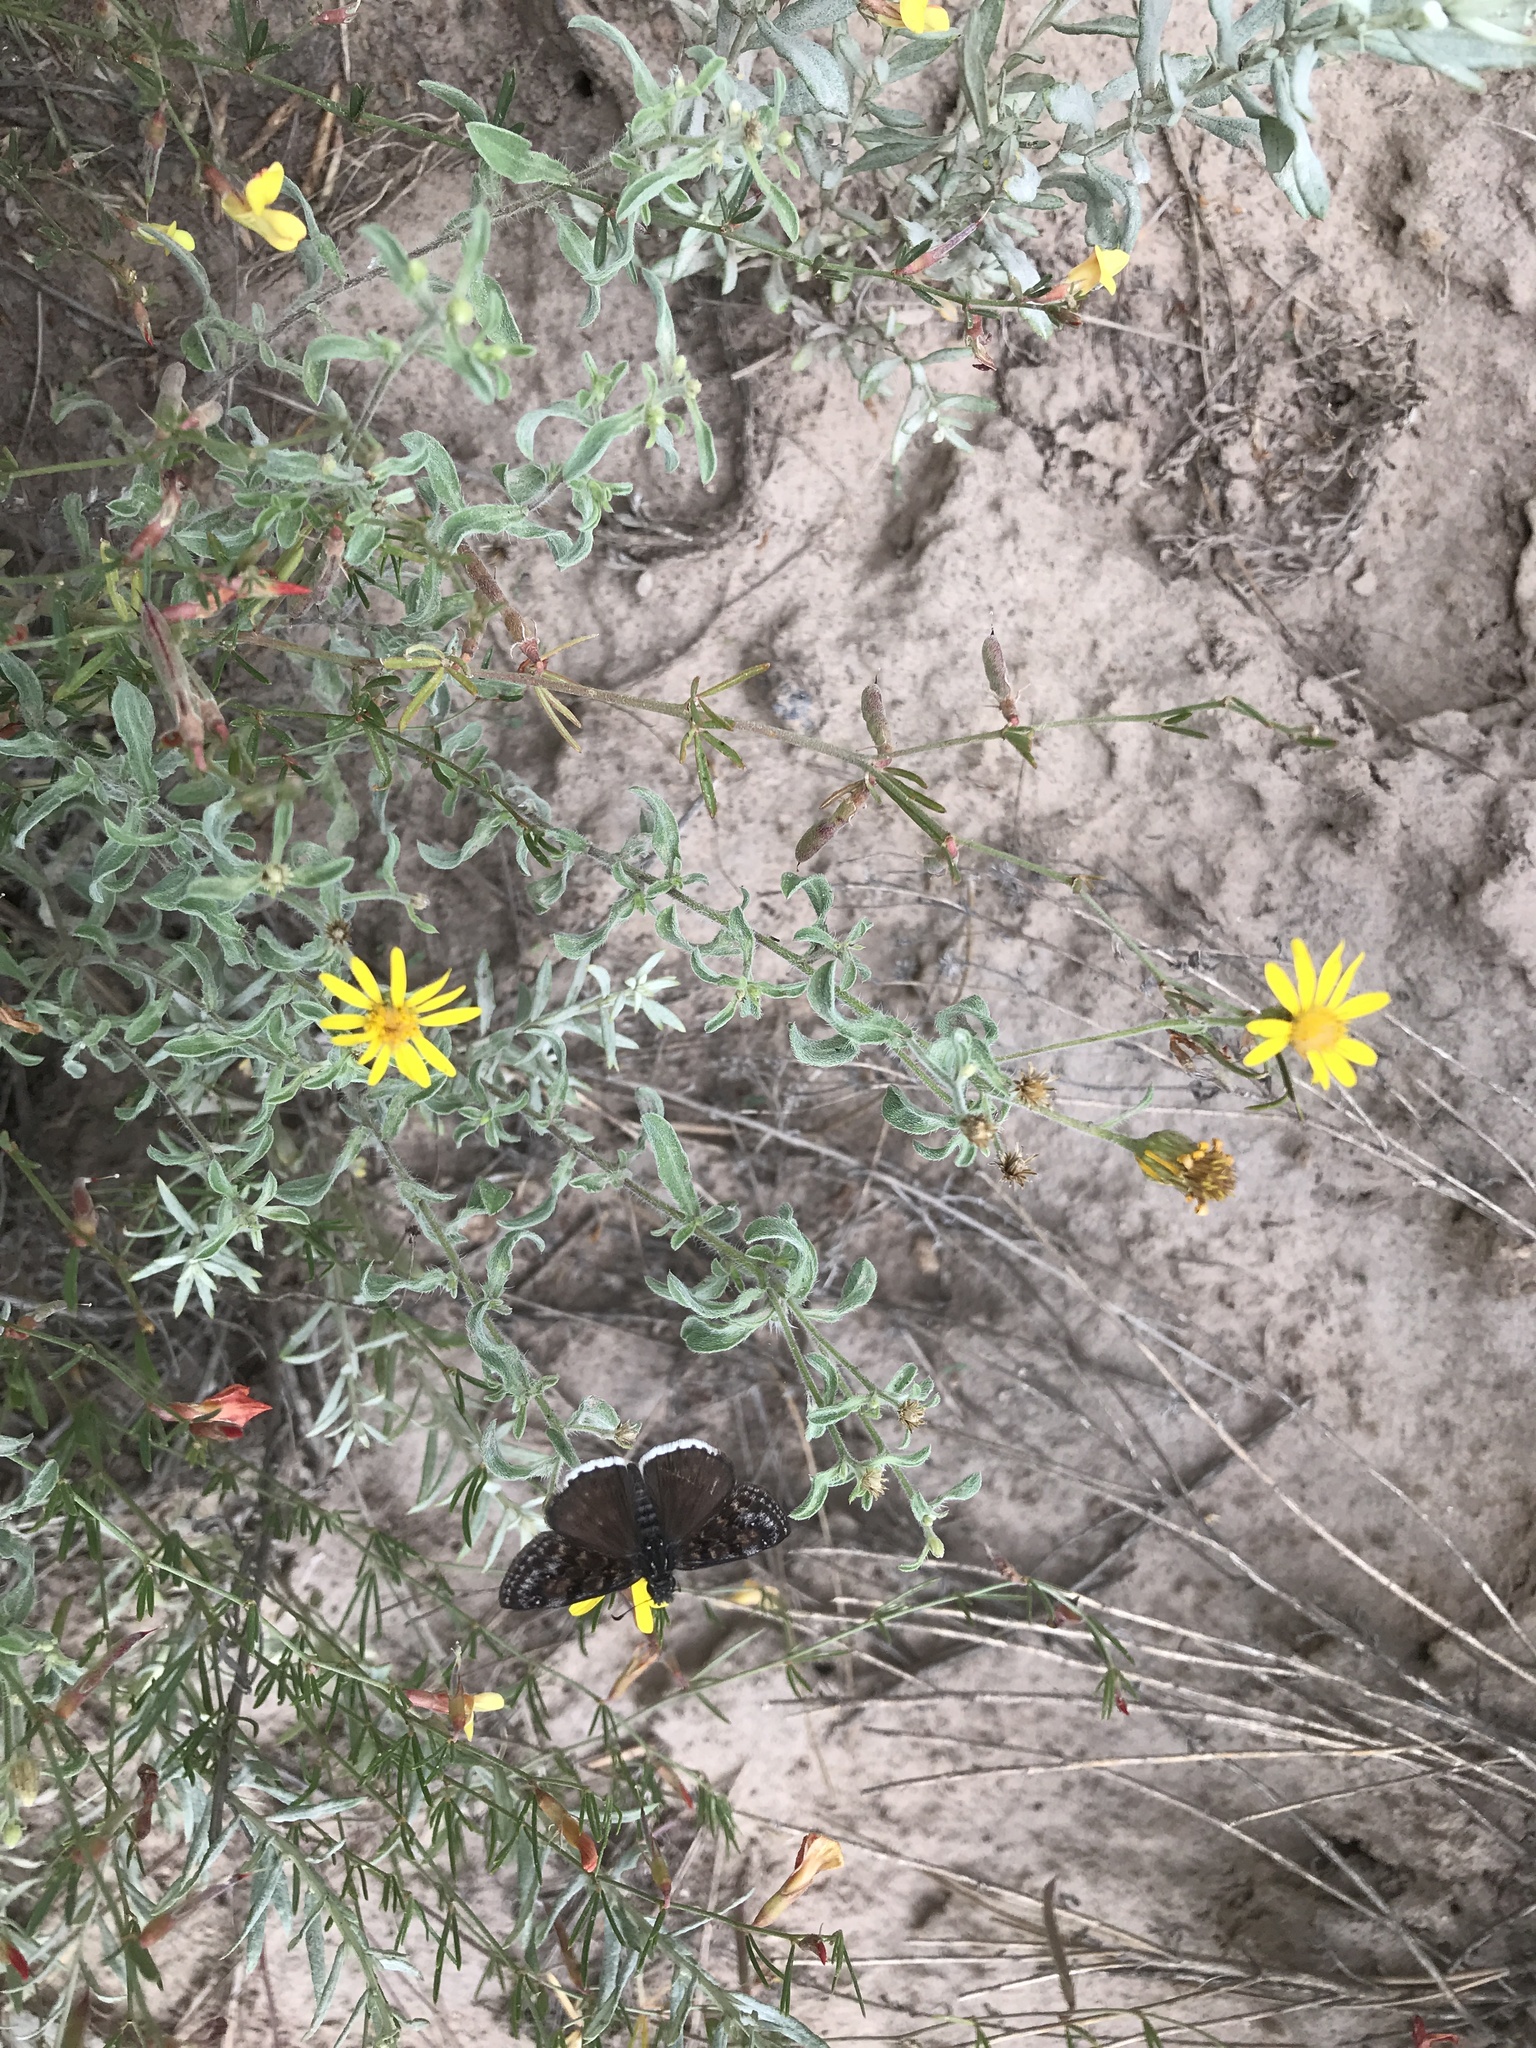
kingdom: Animalia
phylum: Arthropoda
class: Insecta
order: Lepidoptera
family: Hesperiidae
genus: Erynnis
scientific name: Erynnis pacuvius
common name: Pacuvius duskywing
